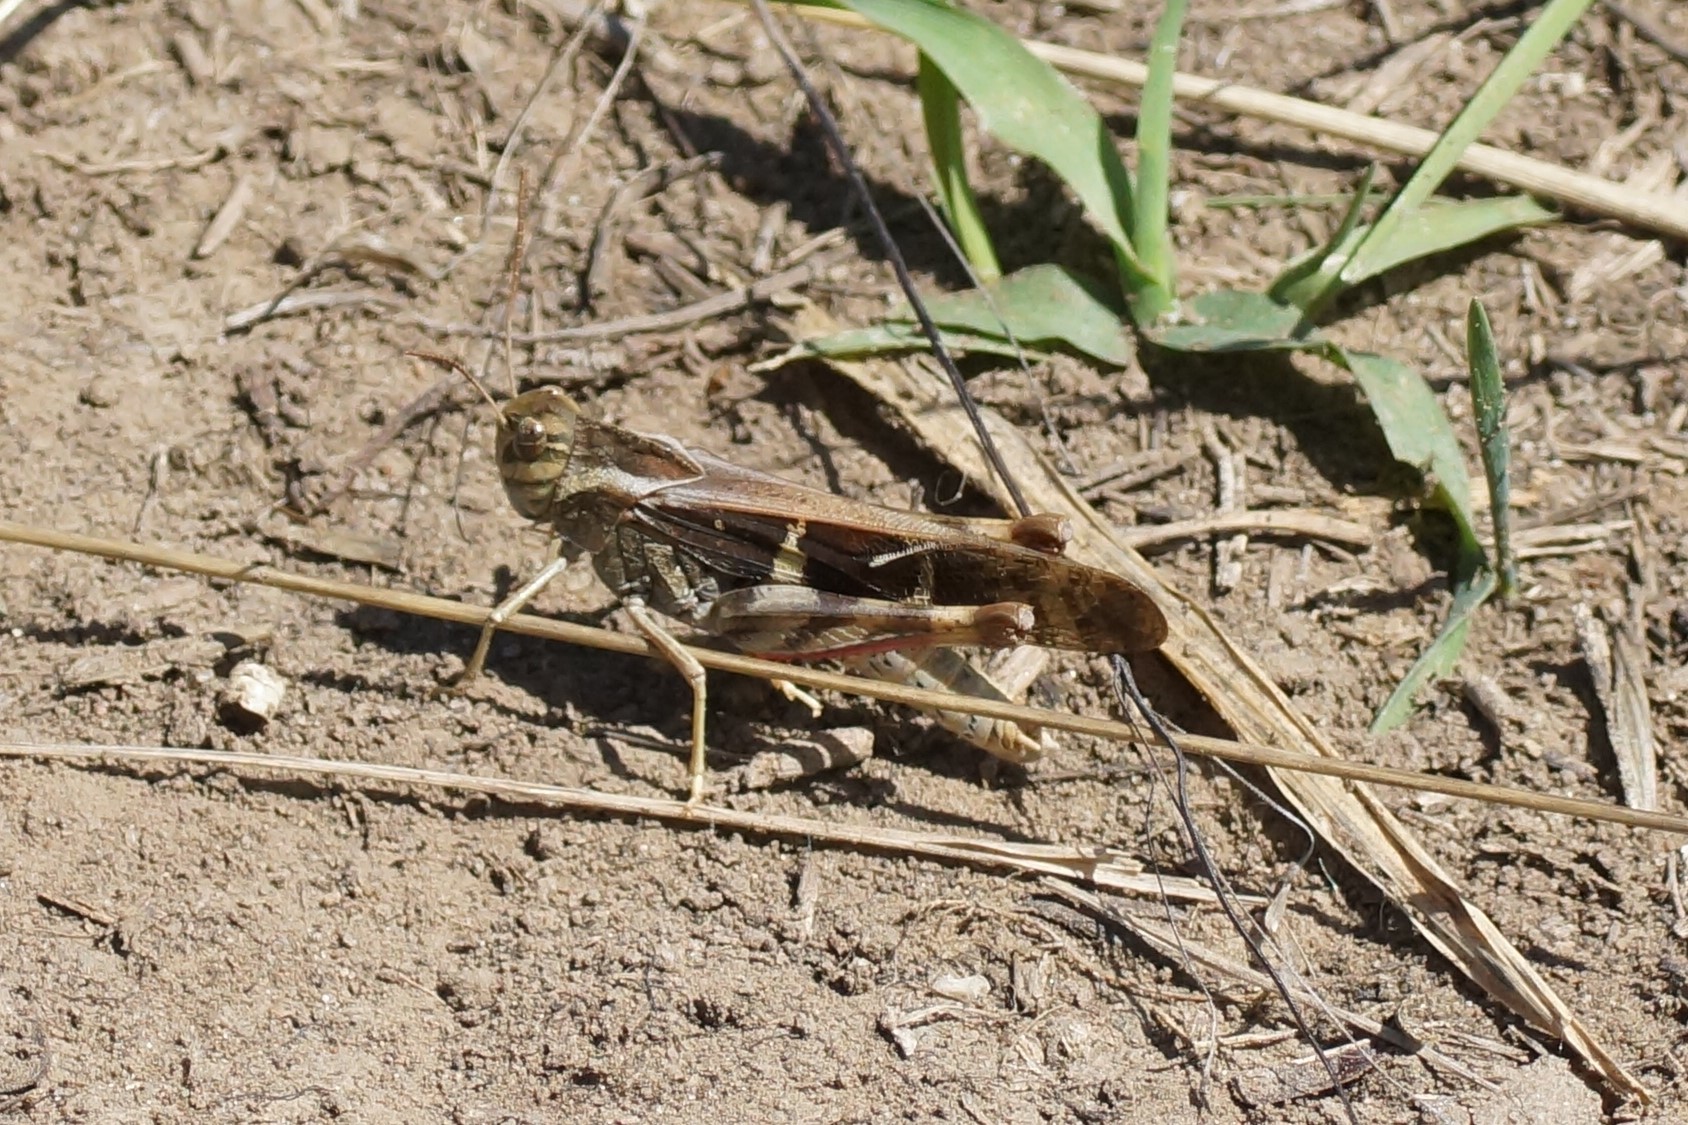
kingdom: Animalia
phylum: Arthropoda
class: Insecta
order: Orthoptera
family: Acrididae
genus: Gastrimargus
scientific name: Gastrimargus musicus
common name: Yellow-winged locust
